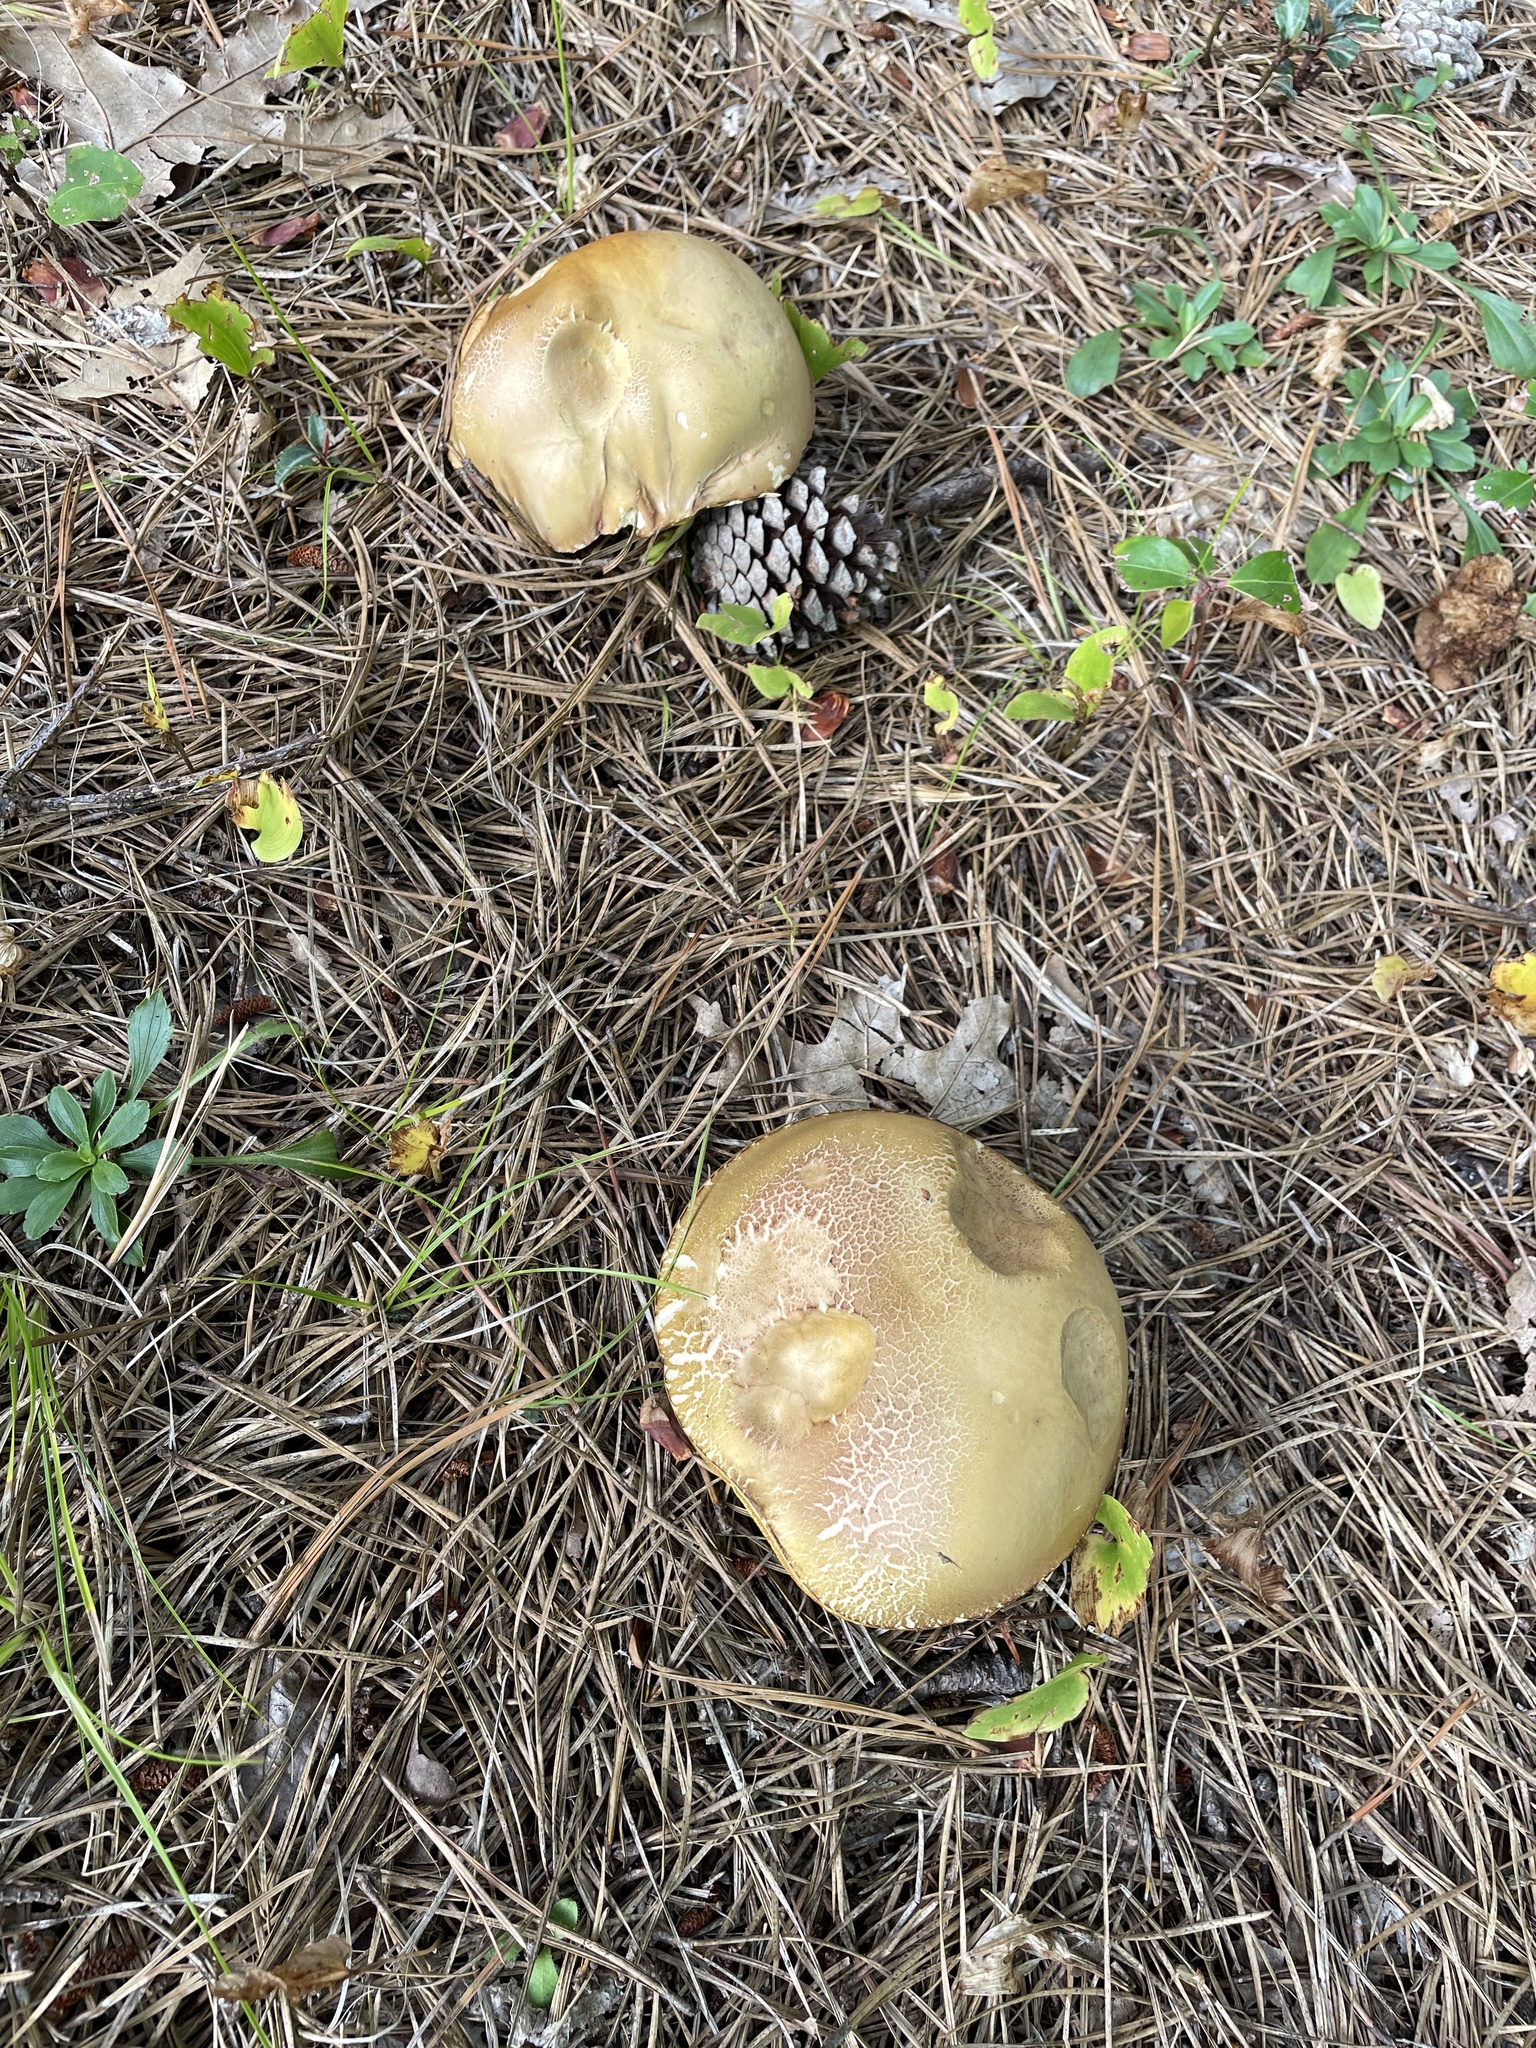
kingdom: Fungi
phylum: Basidiomycota
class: Agaricomycetes
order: Boletales
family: Boletaceae
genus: Boletus
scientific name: Boletus subcaerulescens
